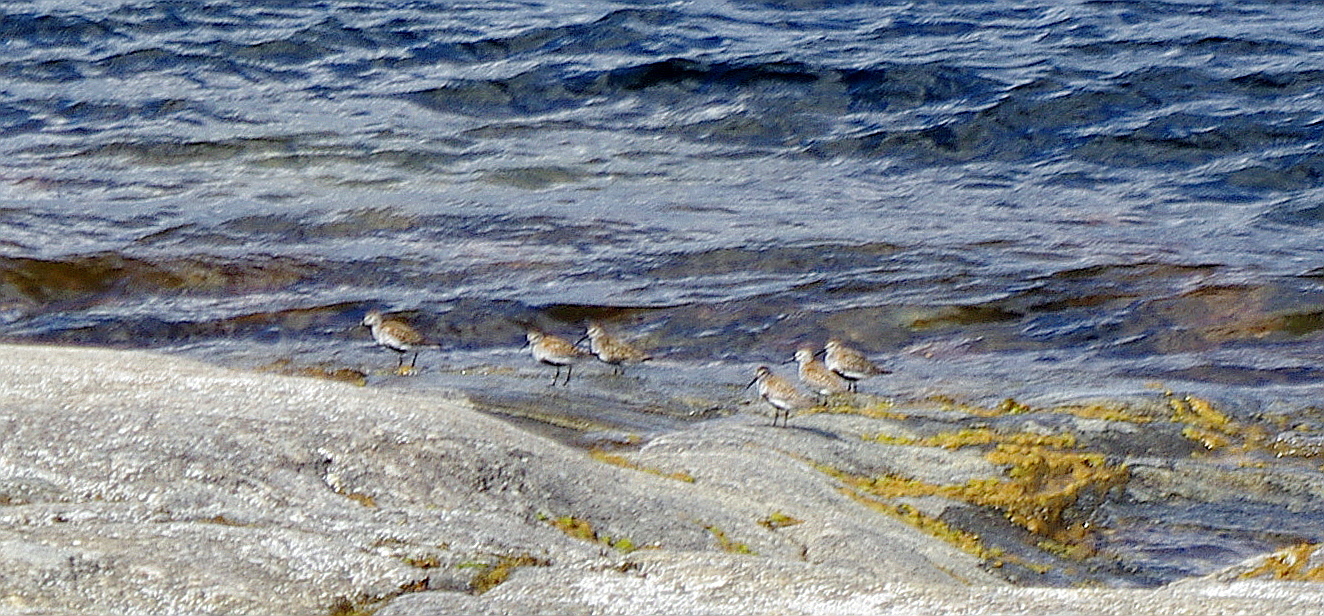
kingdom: Animalia
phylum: Chordata
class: Aves
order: Charadriiformes
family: Scolopacidae
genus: Calidris
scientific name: Calidris alpina
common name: Dunlin
